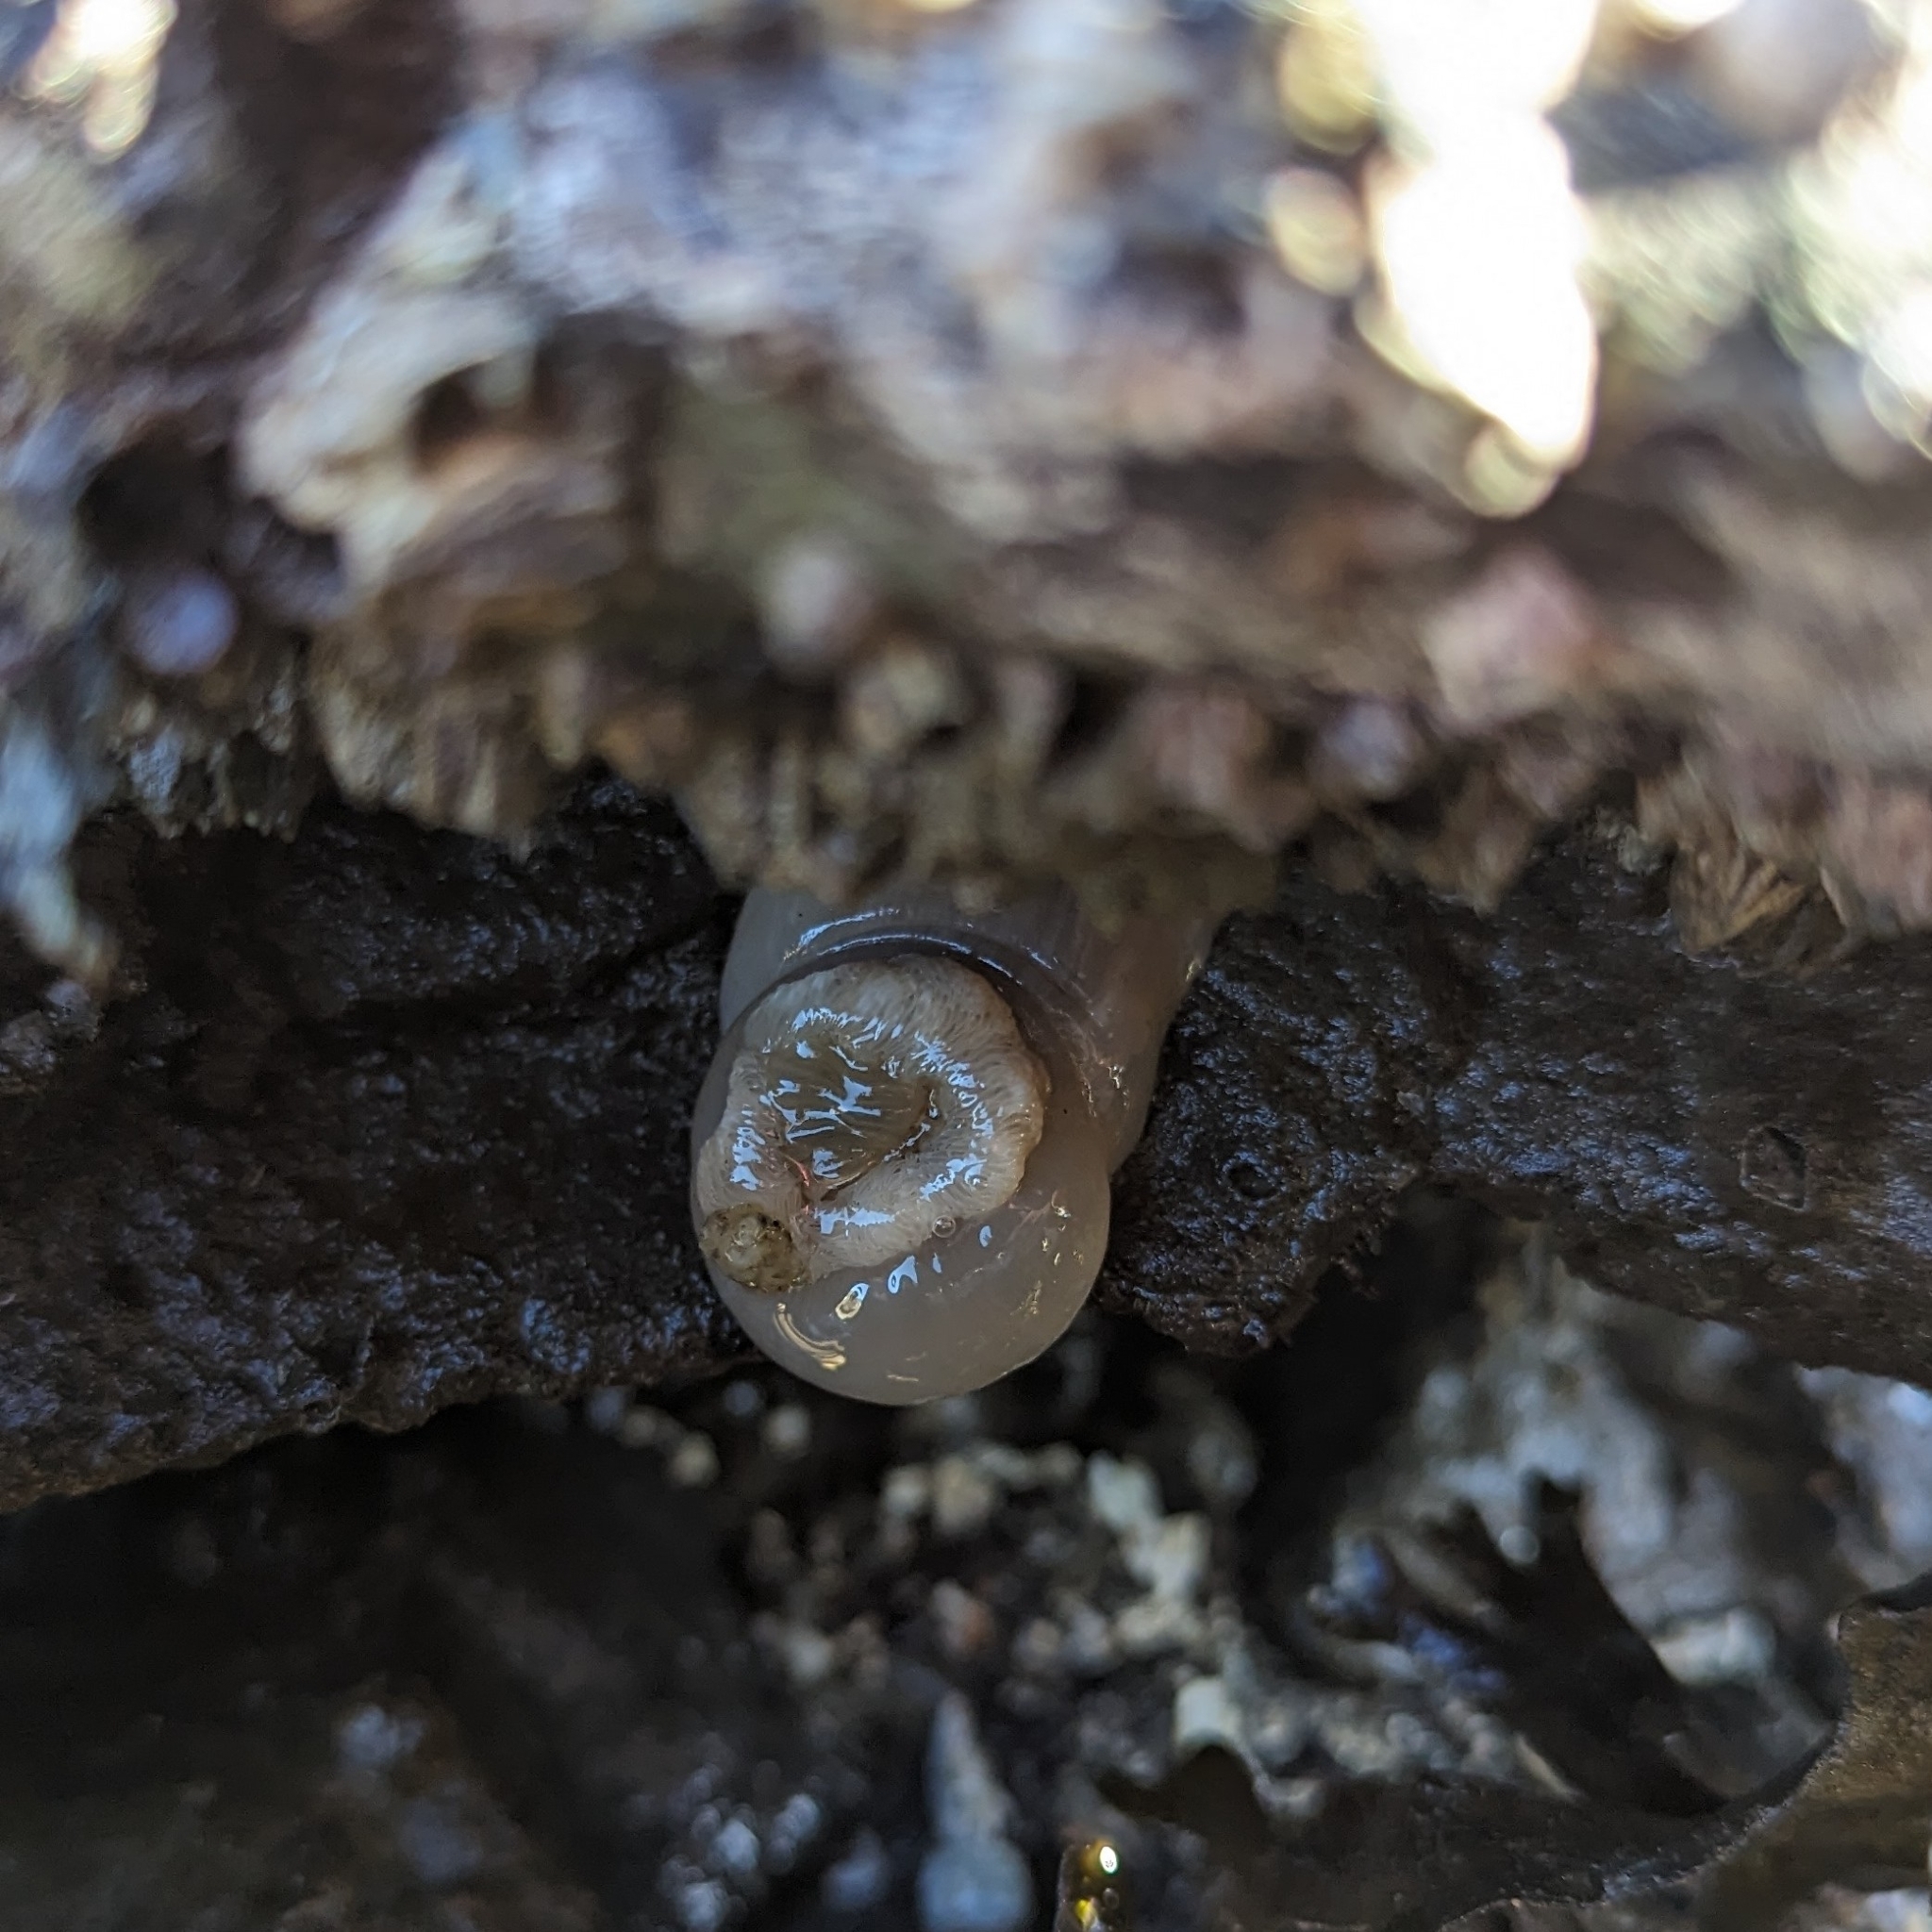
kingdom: Animalia
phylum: Cnidaria
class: Anthozoa
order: Actiniaria
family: Metridiidae
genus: Metridium
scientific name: Metridium senile
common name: Clonal plumose anemone
